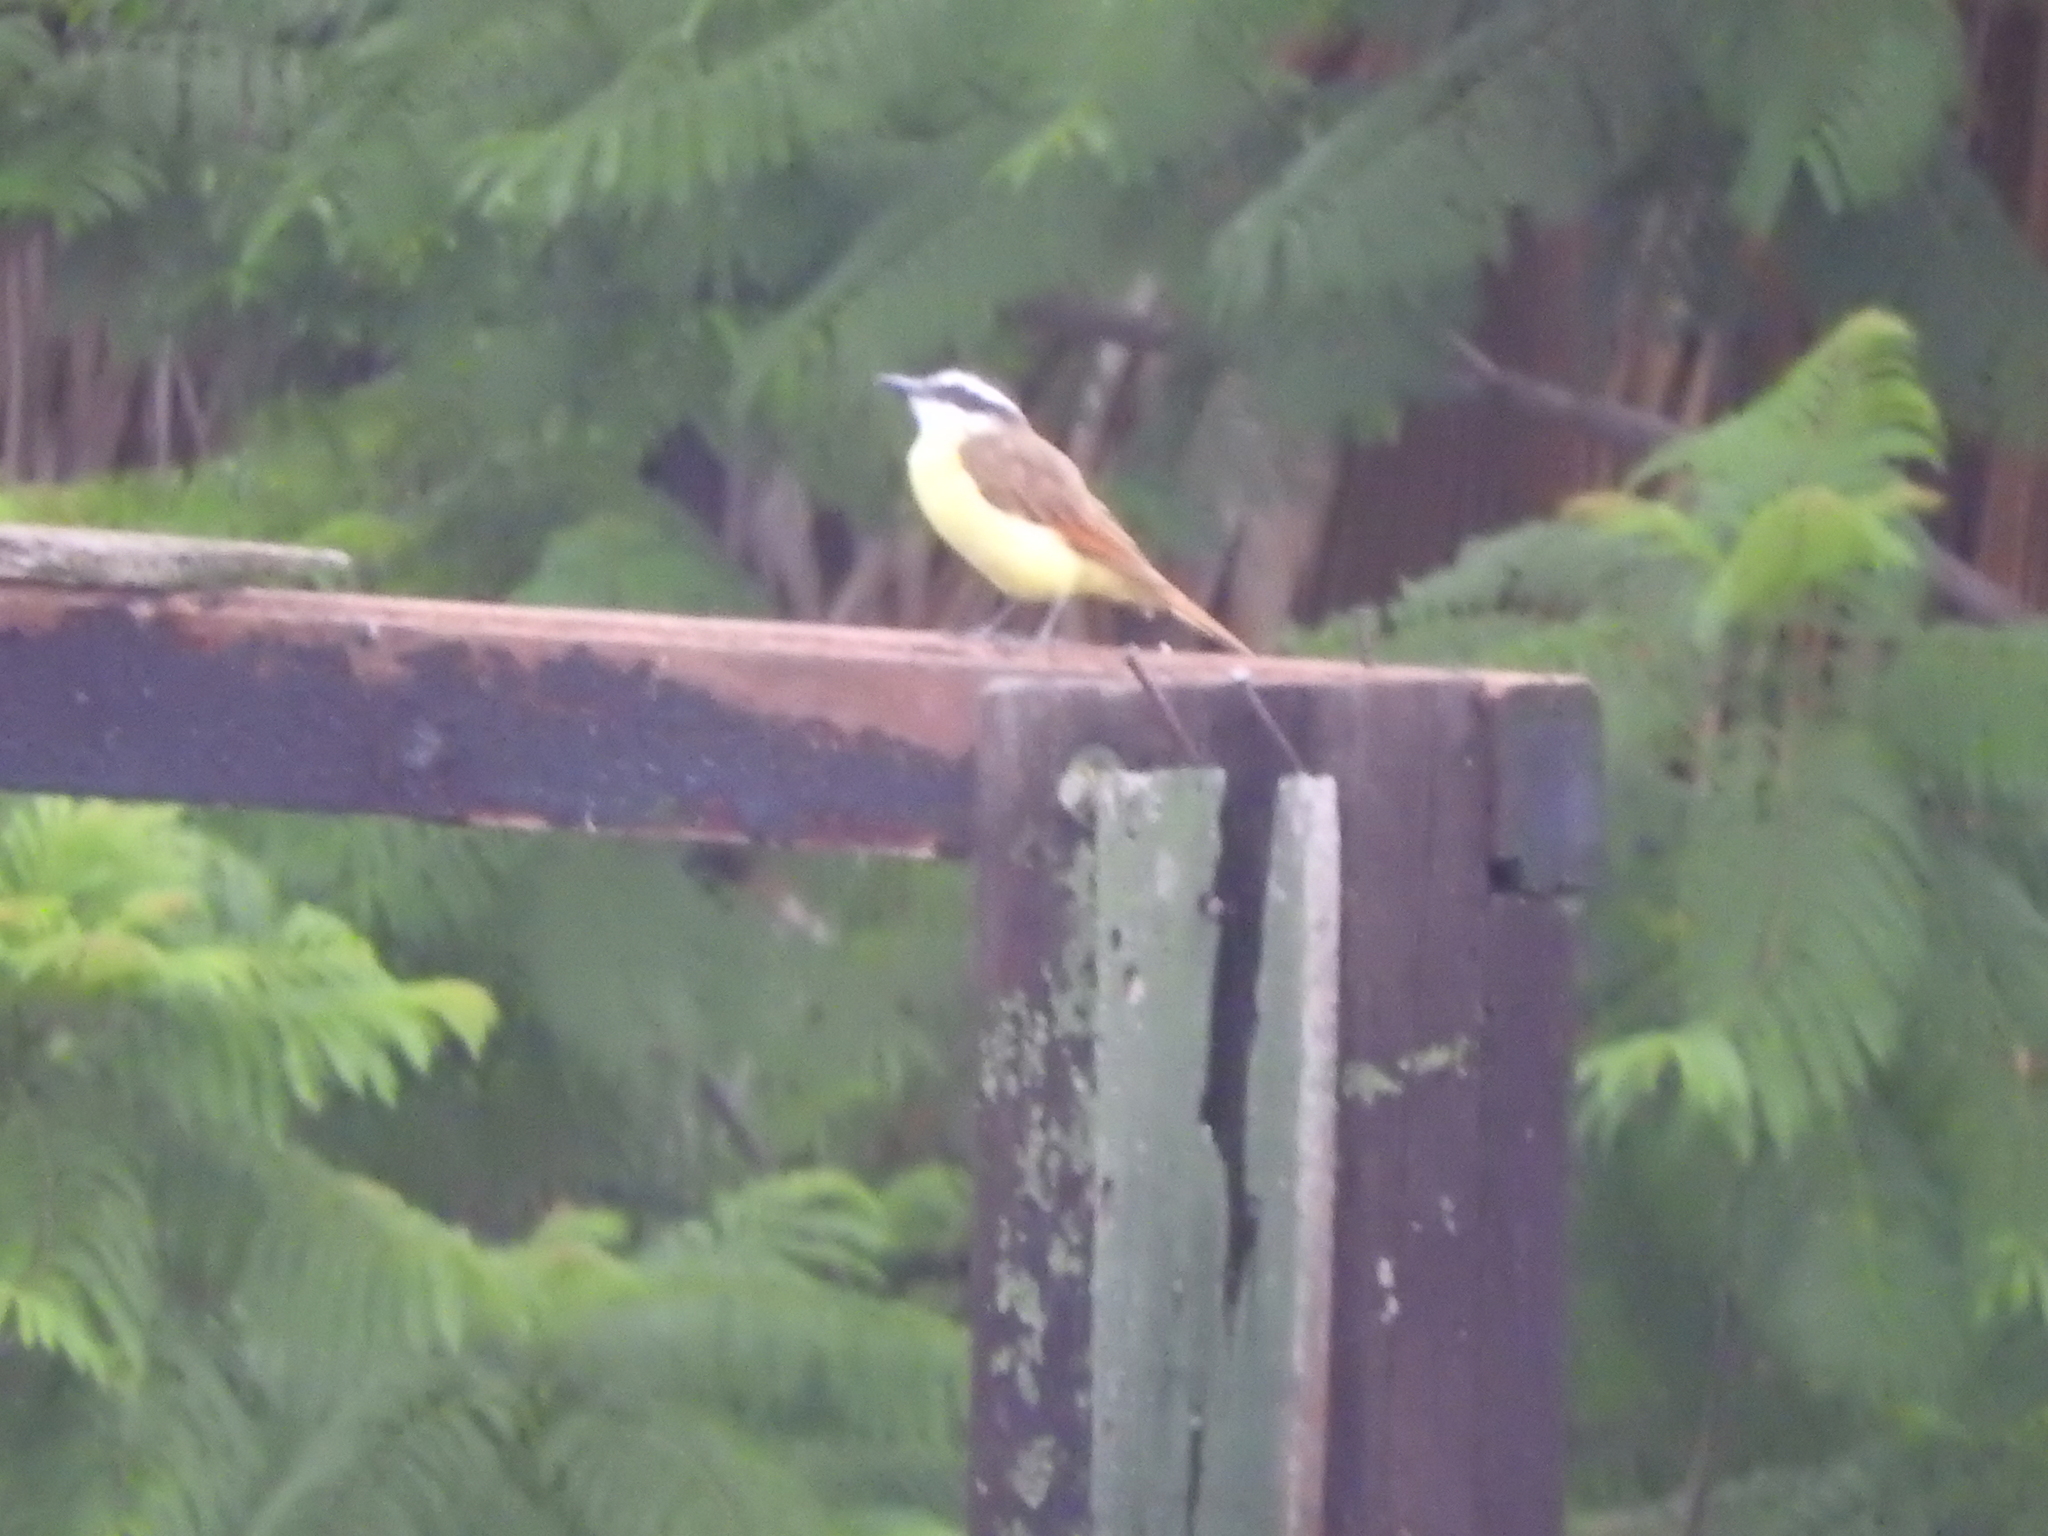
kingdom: Animalia
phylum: Chordata
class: Aves
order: Passeriformes
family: Tyrannidae
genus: Pitangus
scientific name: Pitangus sulphuratus
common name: Great kiskadee
